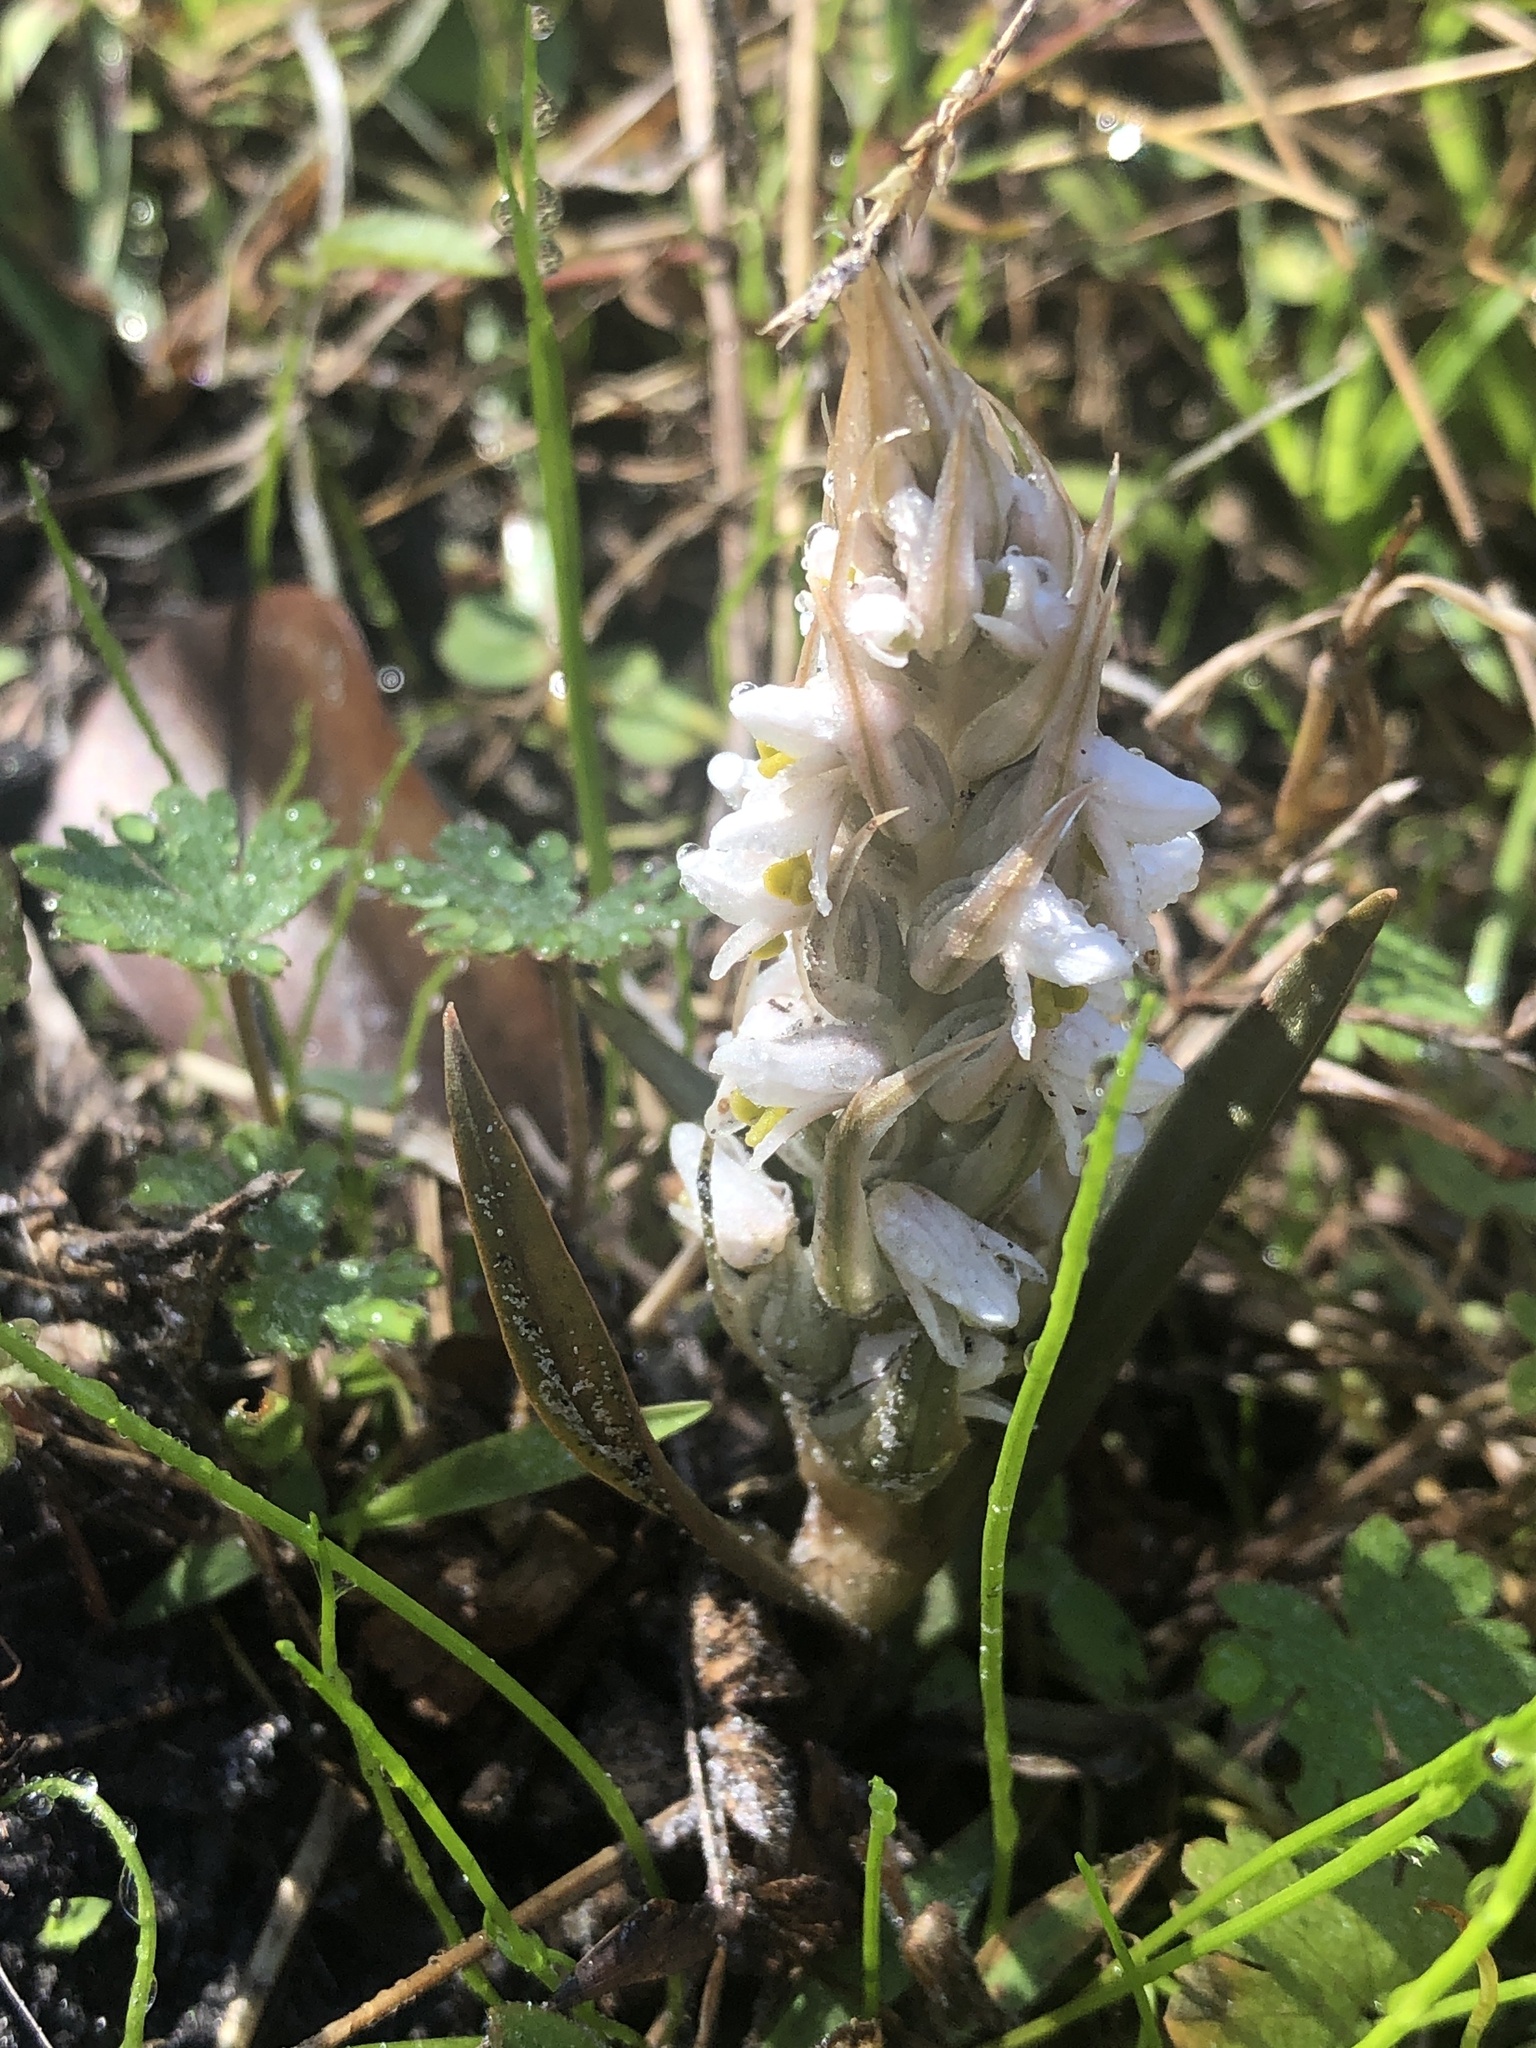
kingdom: Plantae
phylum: Tracheophyta
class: Liliopsida
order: Asparagales
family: Orchidaceae
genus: Zeuxine
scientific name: Zeuxine strateumatica
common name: Soldier's orchid
